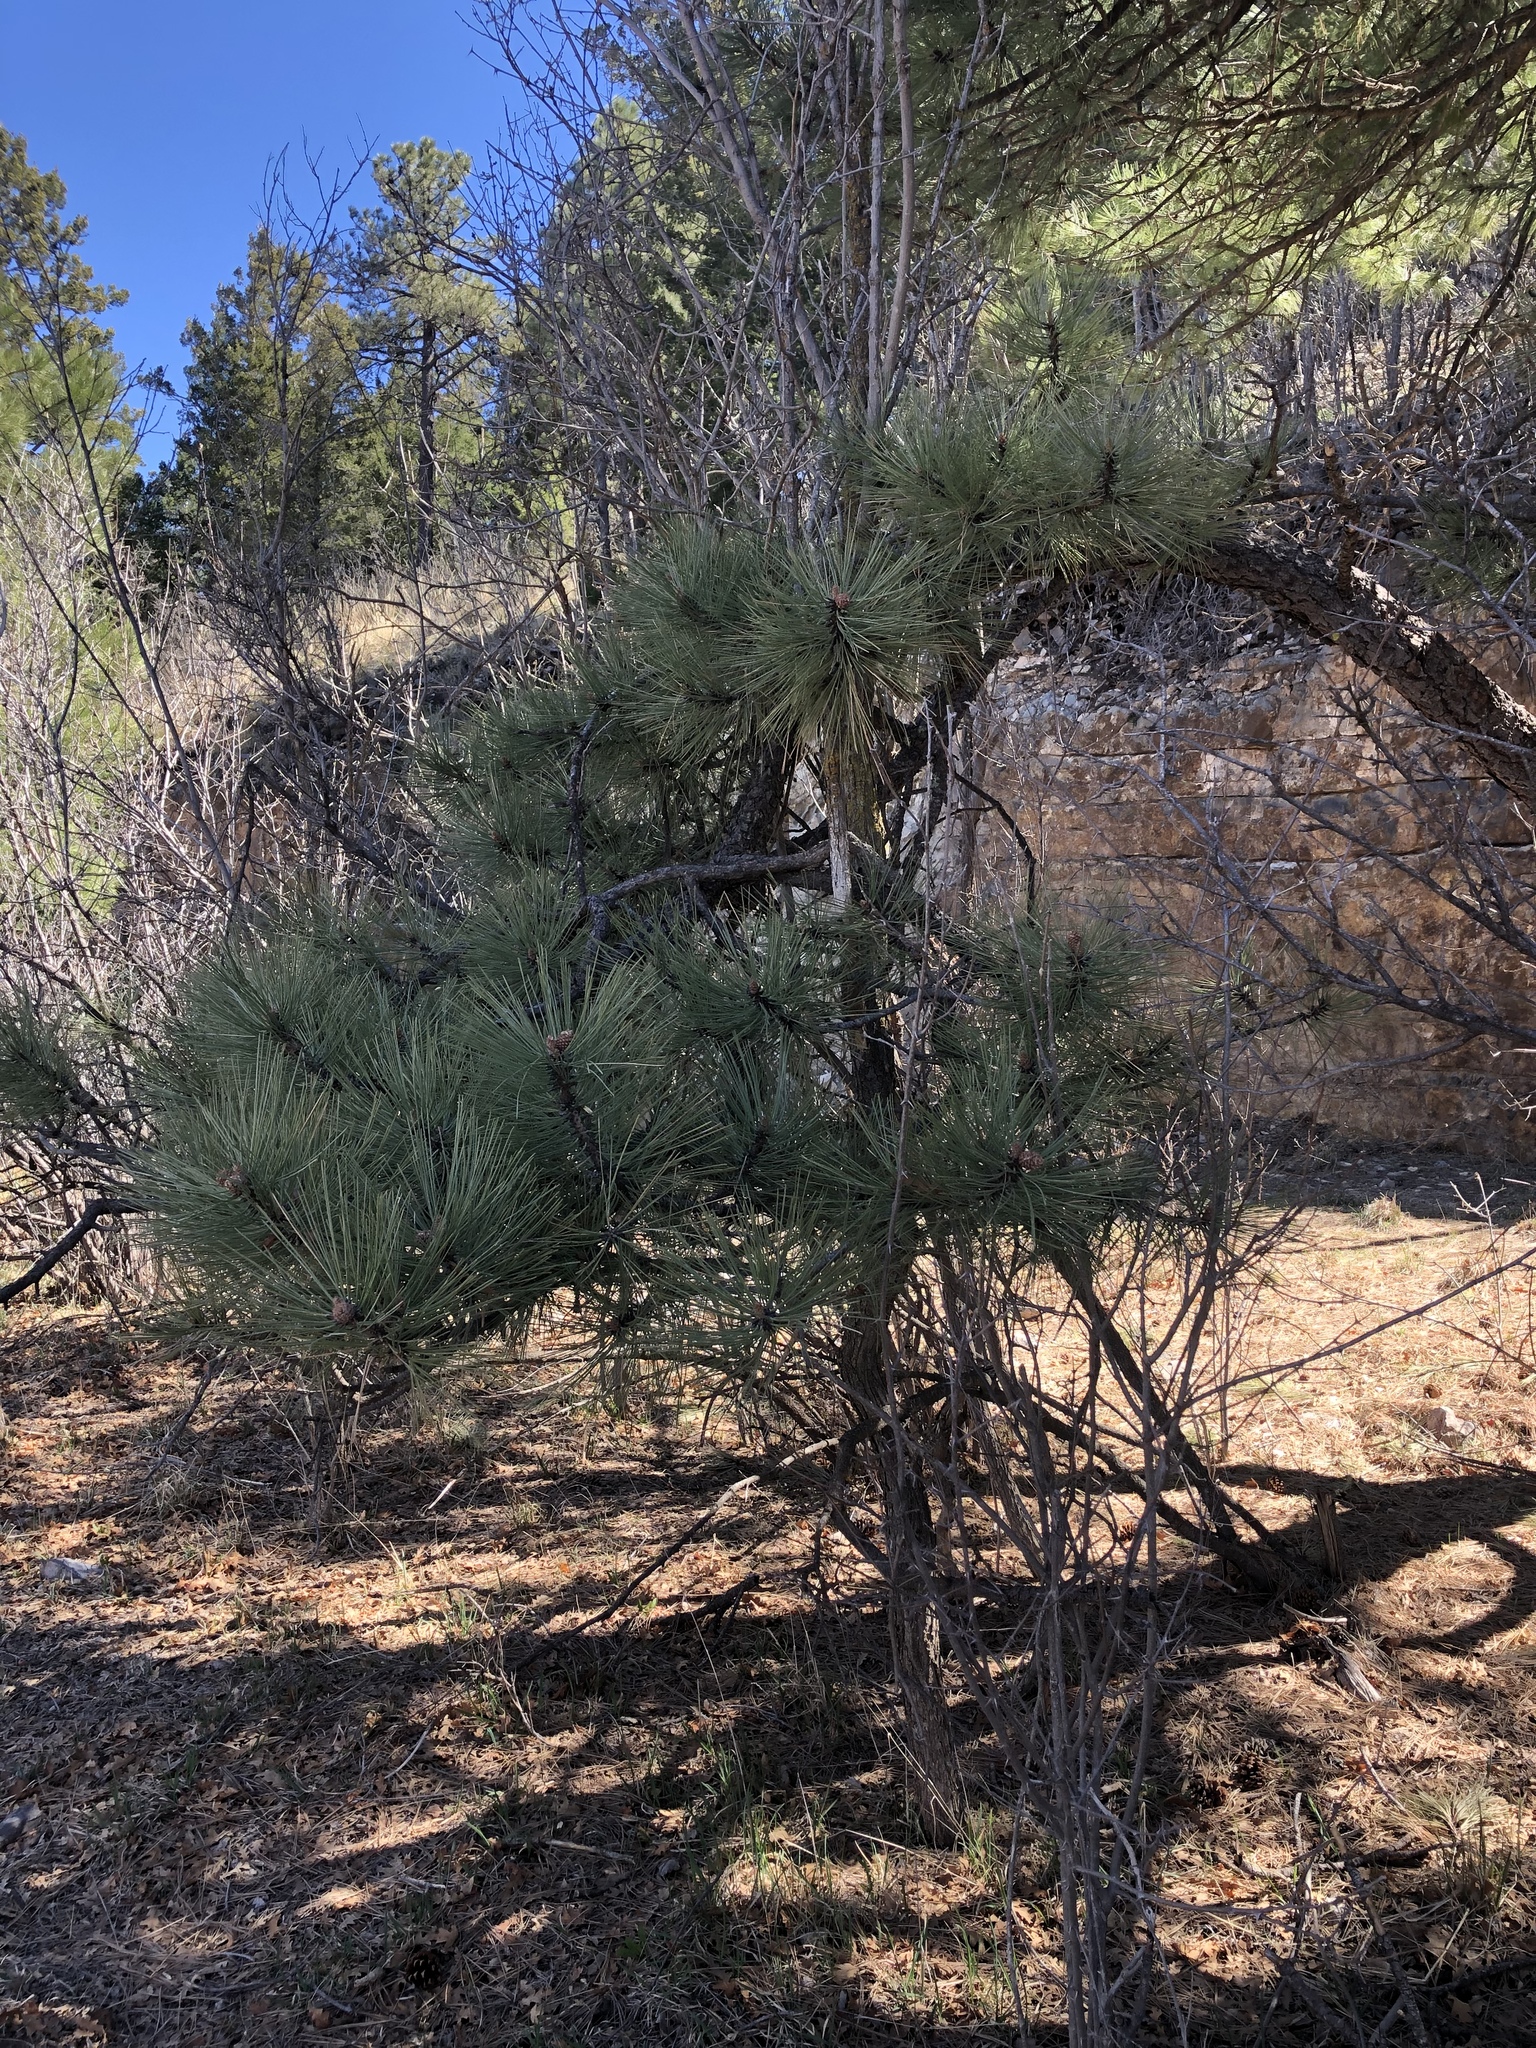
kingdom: Plantae
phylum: Tracheophyta
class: Pinopsida
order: Pinales
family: Pinaceae
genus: Pinus
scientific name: Pinus ponderosa
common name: Western yellow-pine
